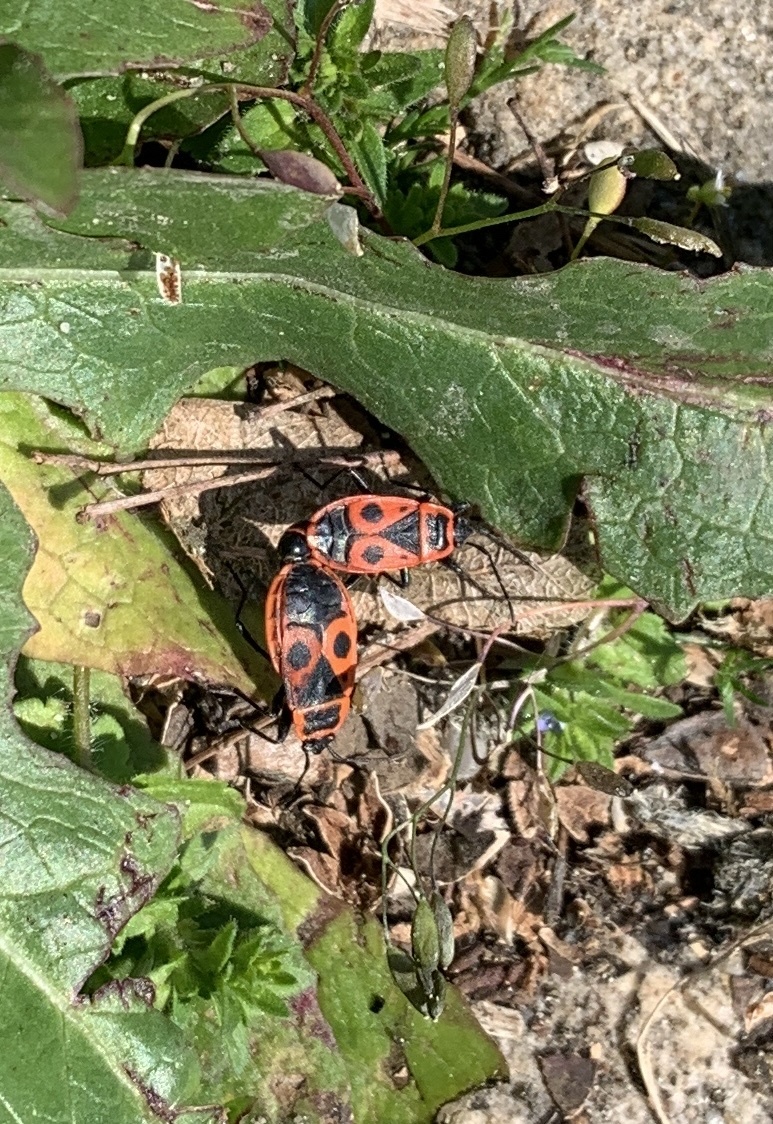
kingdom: Animalia
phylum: Arthropoda
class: Insecta
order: Hemiptera
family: Pyrrhocoridae
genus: Pyrrhocoris
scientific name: Pyrrhocoris apterus
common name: Firebug
